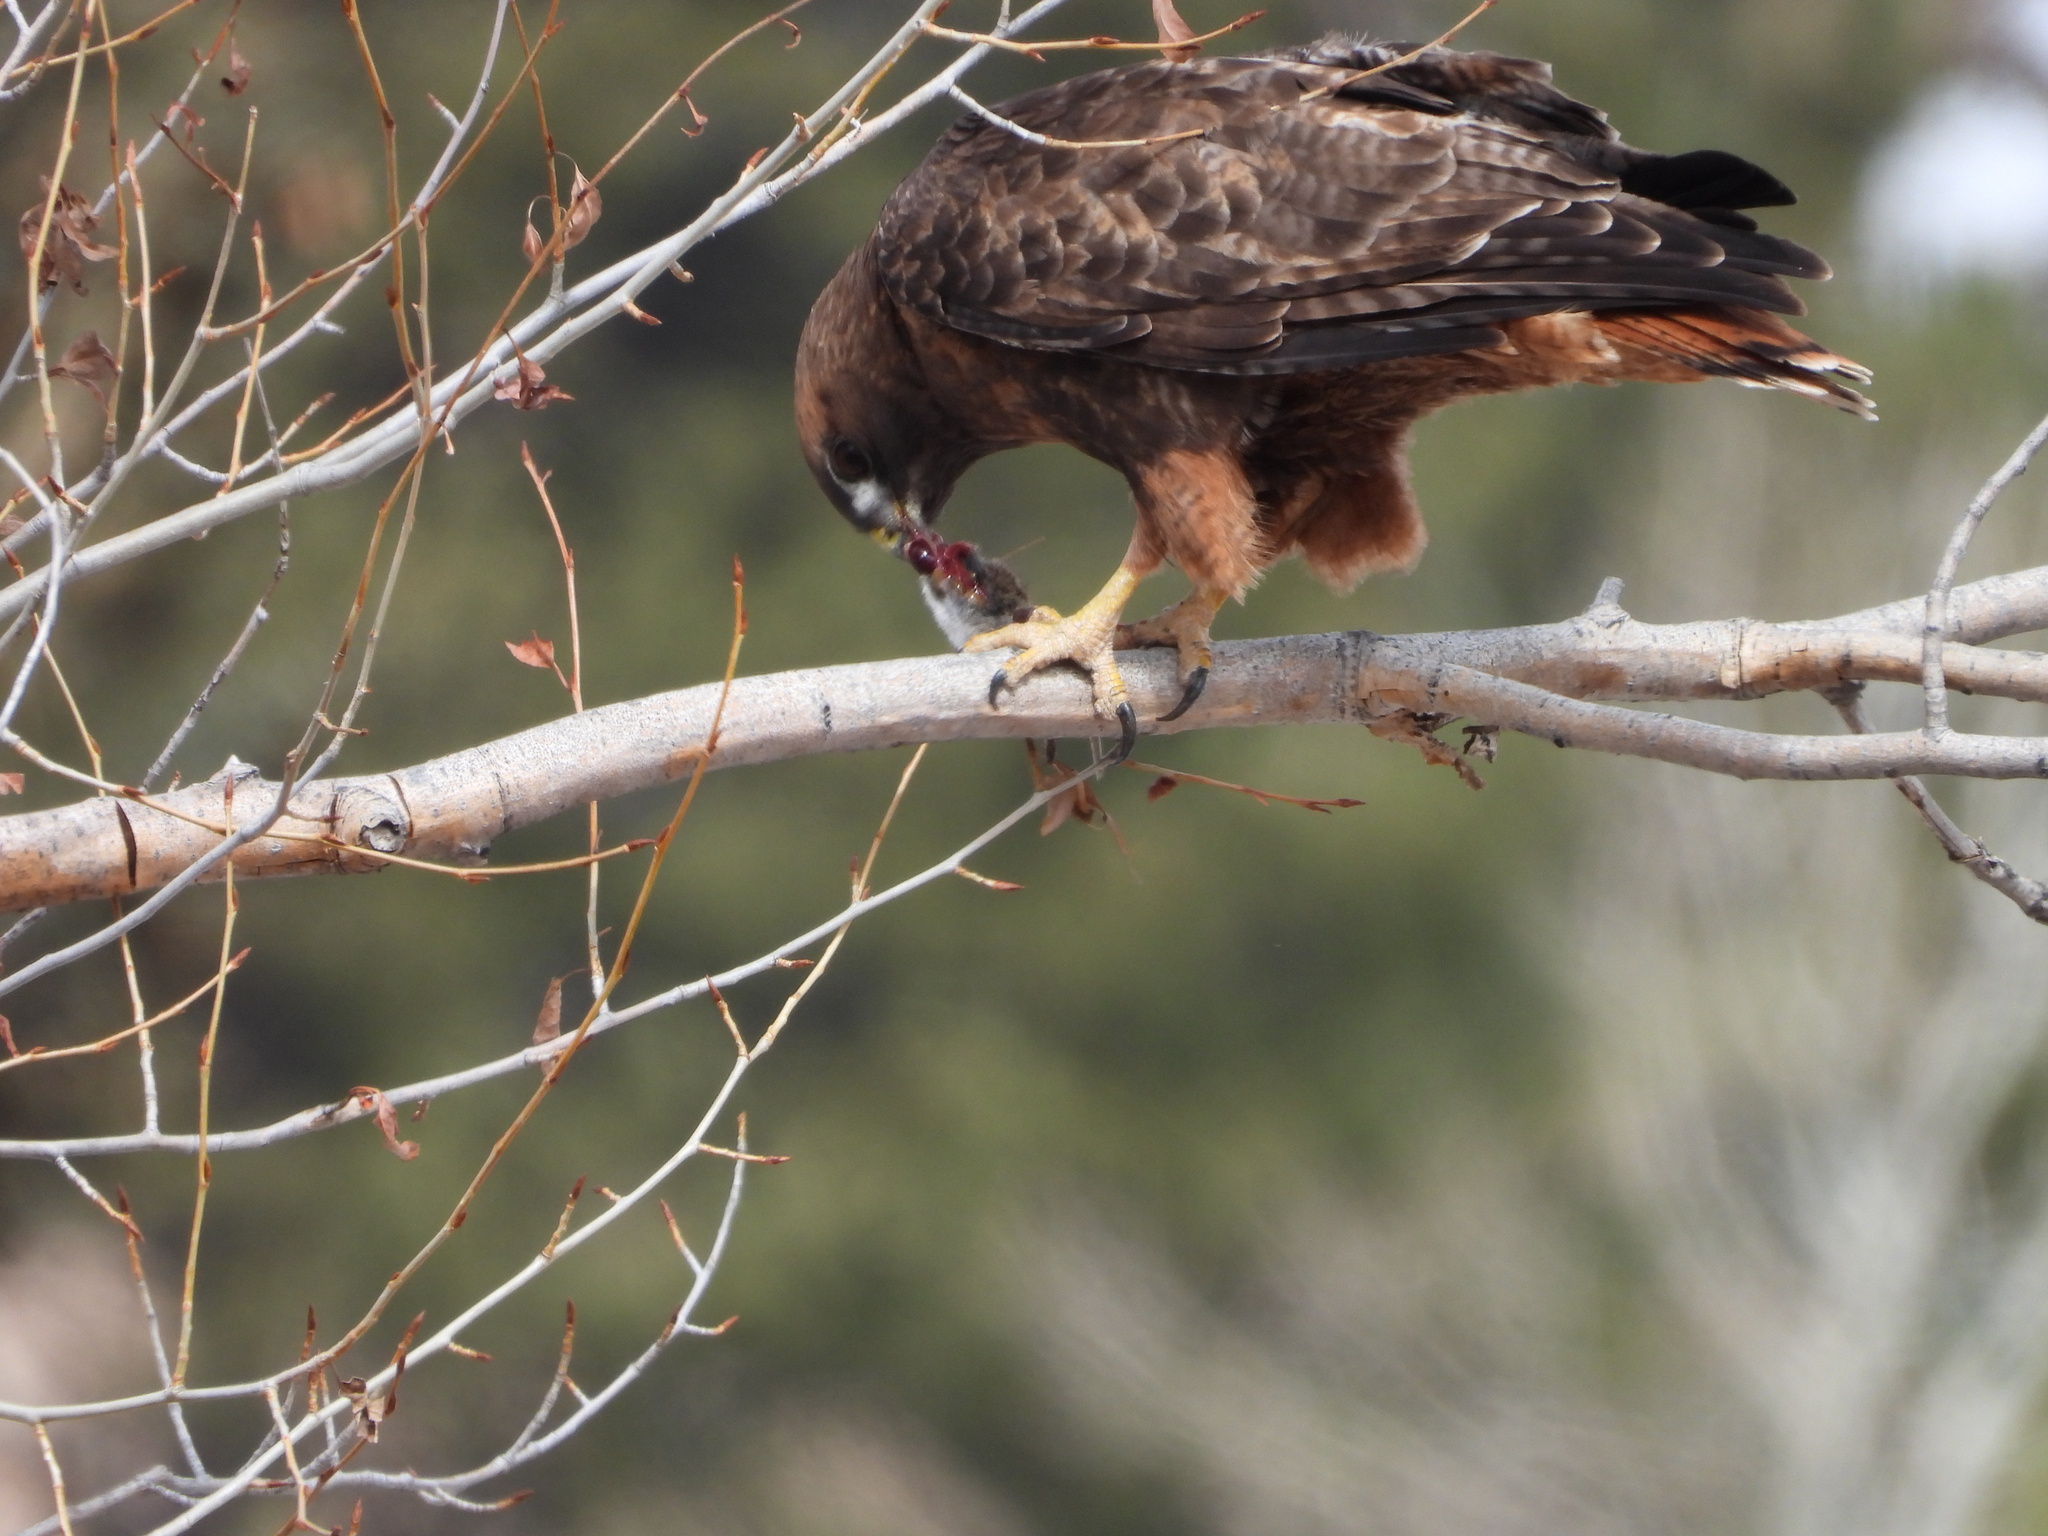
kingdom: Animalia
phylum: Chordata
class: Aves
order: Accipitriformes
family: Accipitridae
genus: Buteo
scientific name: Buteo jamaicensis
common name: Red-tailed hawk
